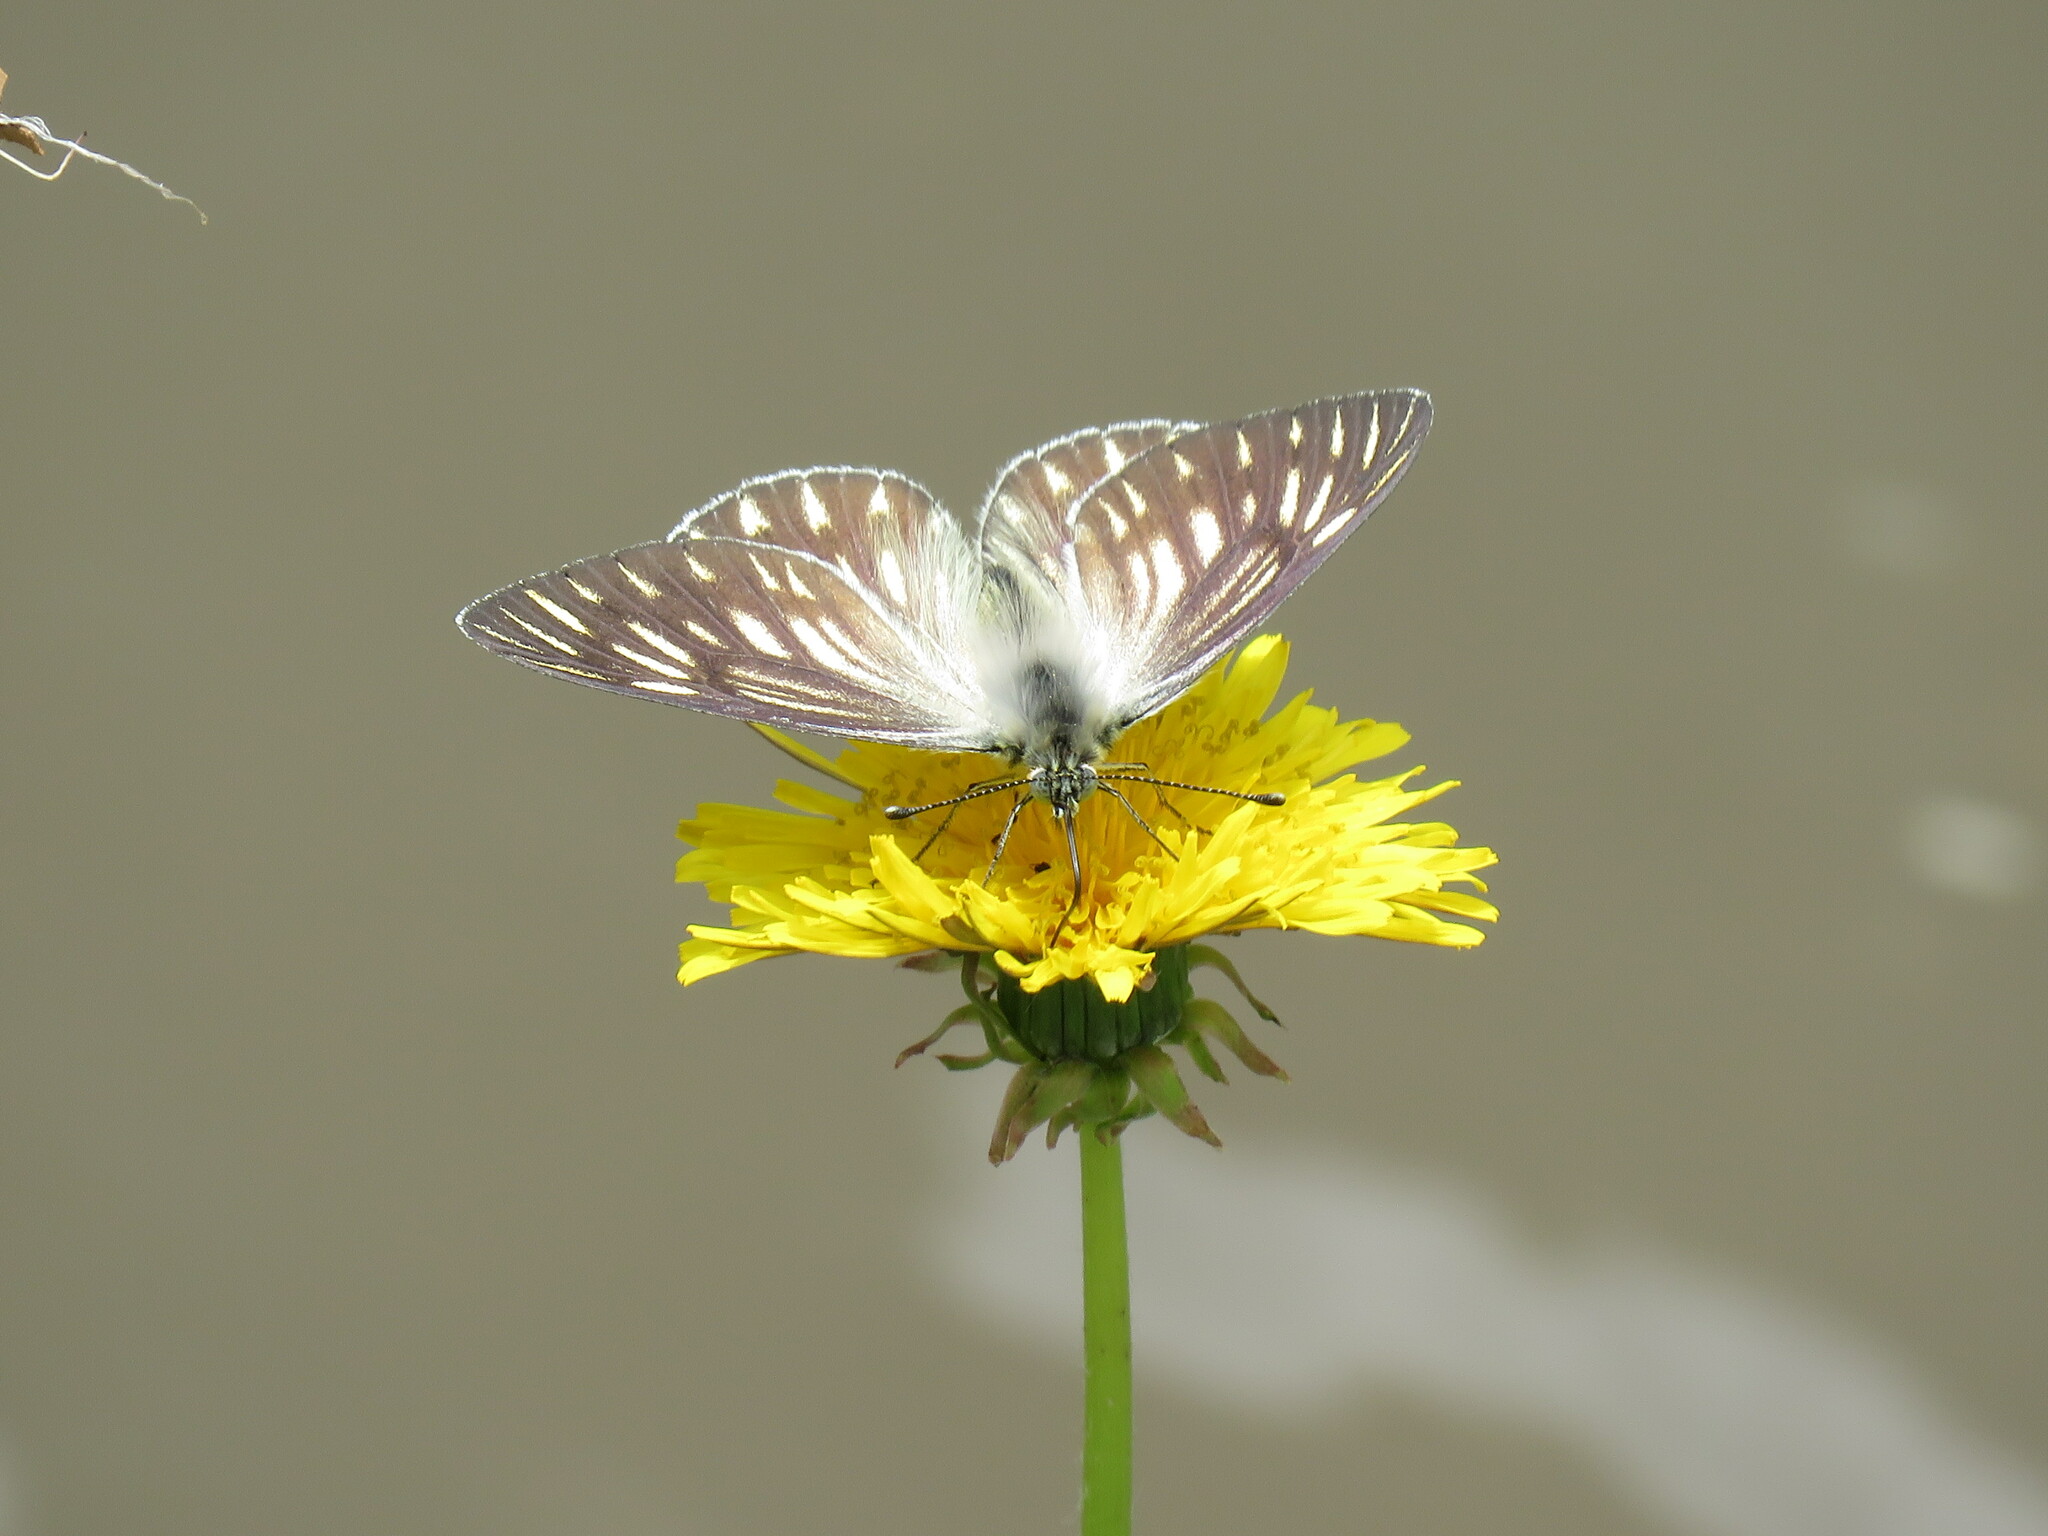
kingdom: Animalia
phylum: Arthropoda
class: Insecta
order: Lepidoptera
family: Pieridae
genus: Tatochila
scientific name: Tatochila xanthodice
